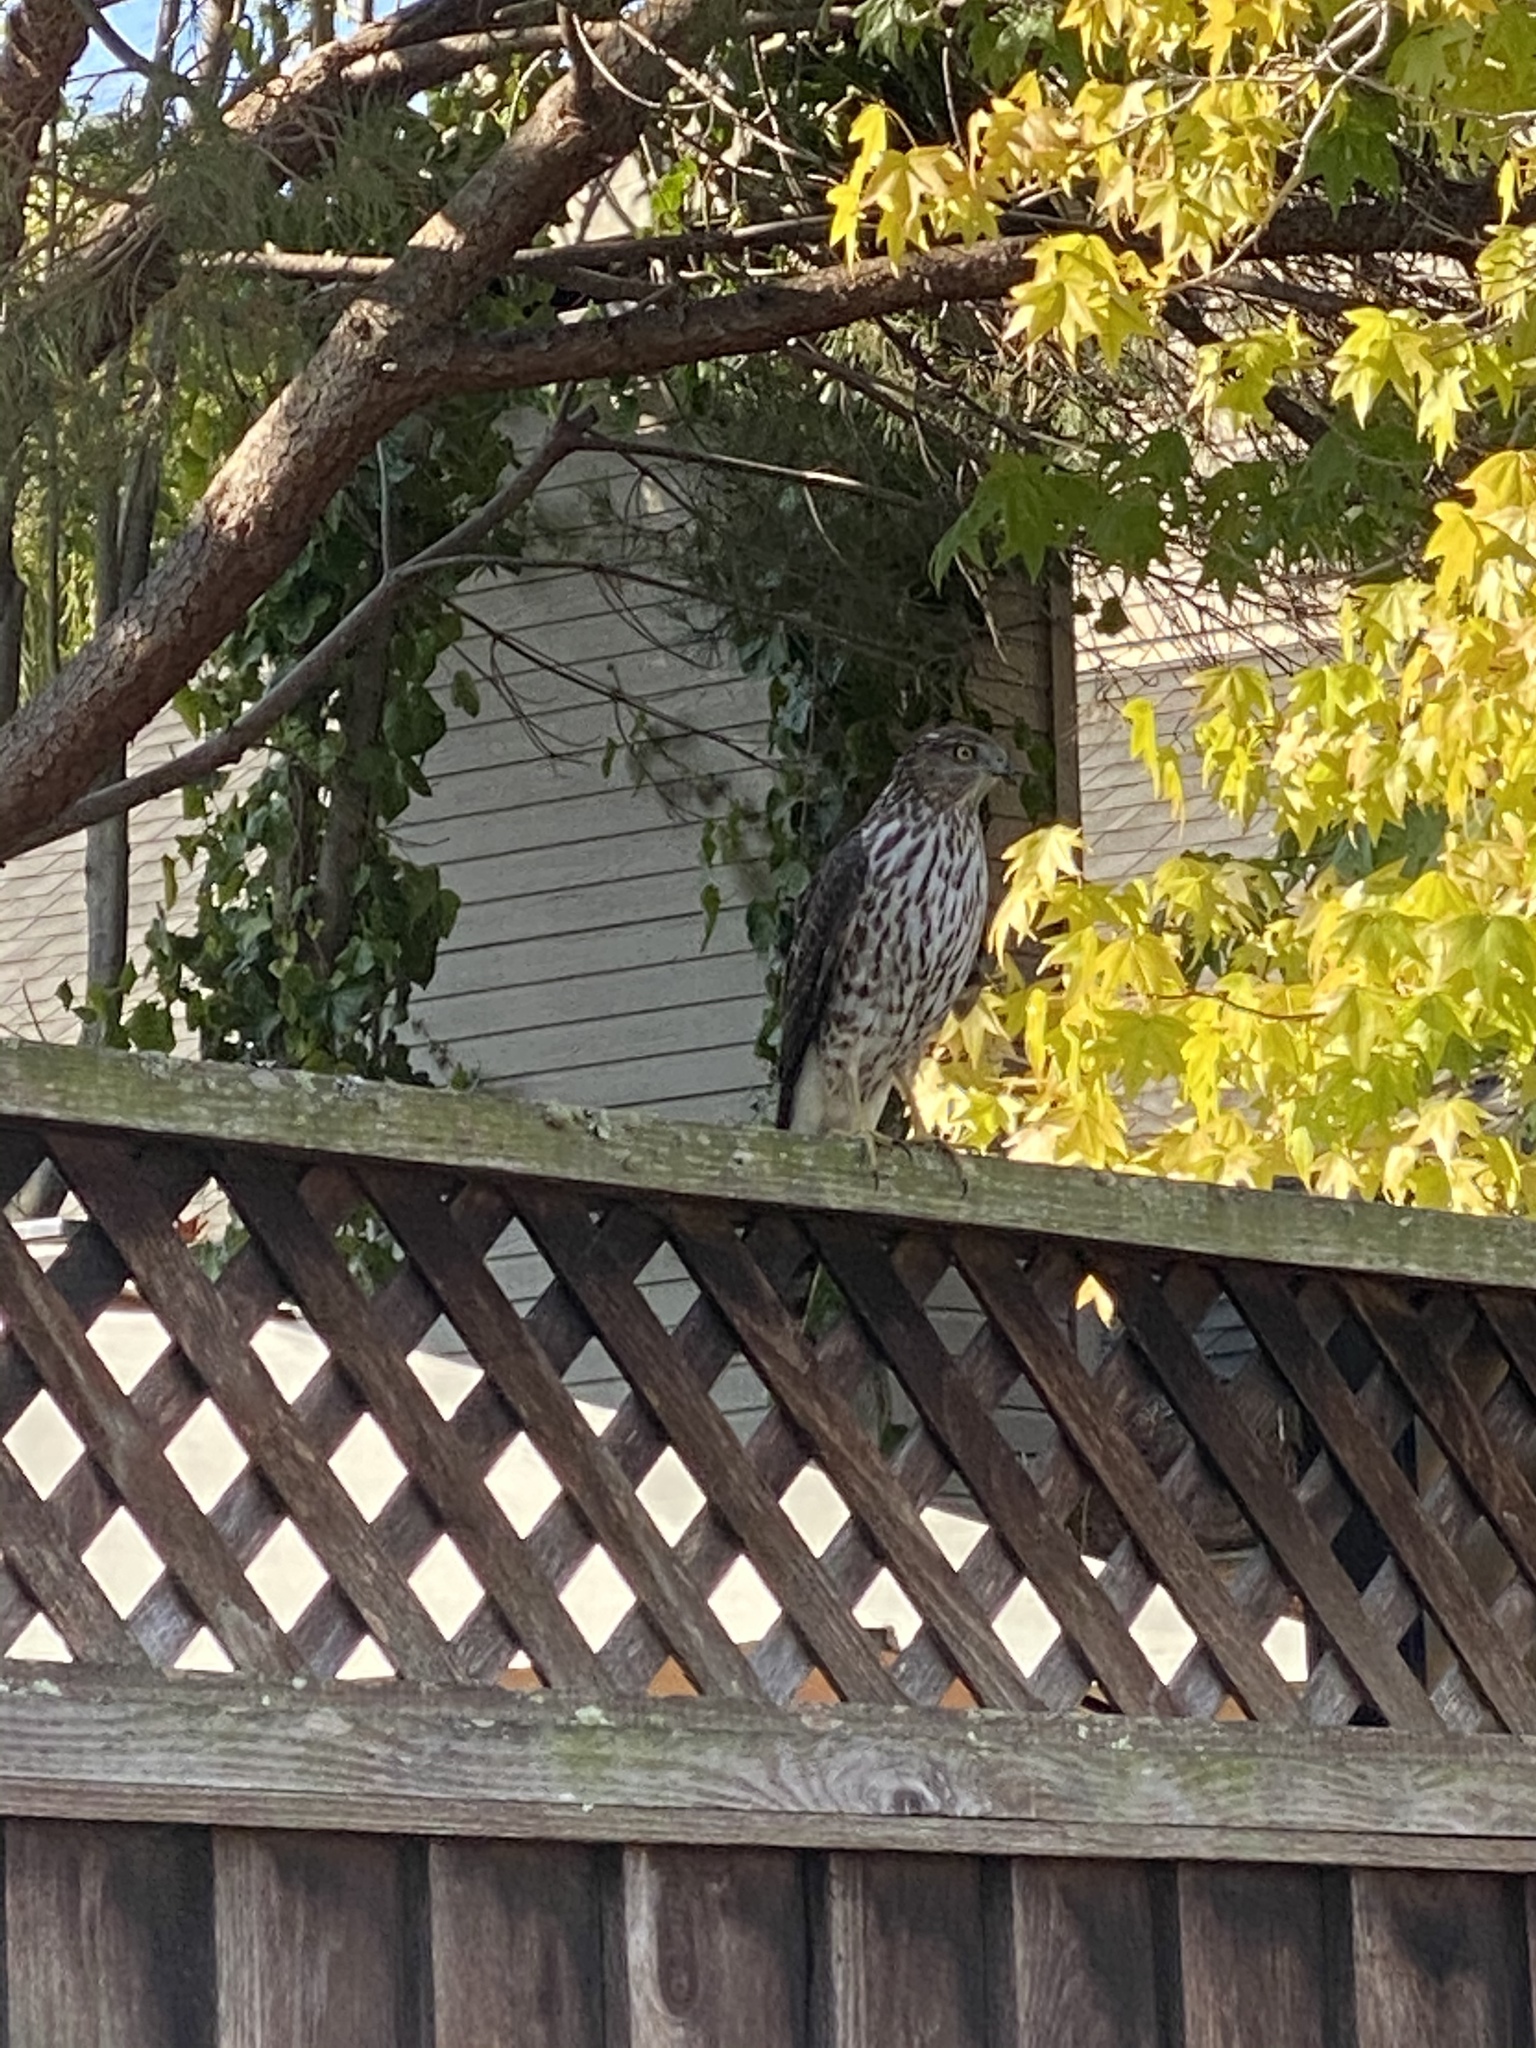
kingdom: Animalia
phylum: Chordata
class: Aves
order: Accipitriformes
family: Accipitridae
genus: Accipiter
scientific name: Accipiter cooperii
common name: Cooper's hawk
